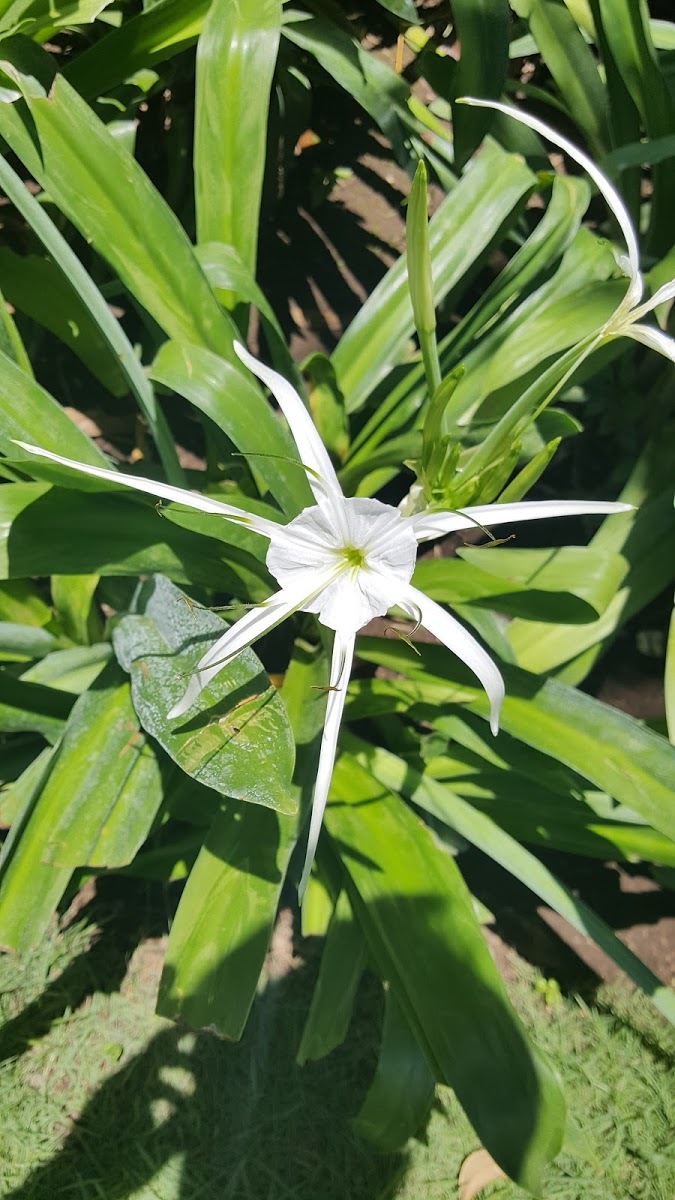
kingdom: Plantae
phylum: Tracheophyta
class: Liliopsida
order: Asparagales
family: Amaryllidaceae
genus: Hymenocallis
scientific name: Hymenocallis littoralis
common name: Beach spiderlily
